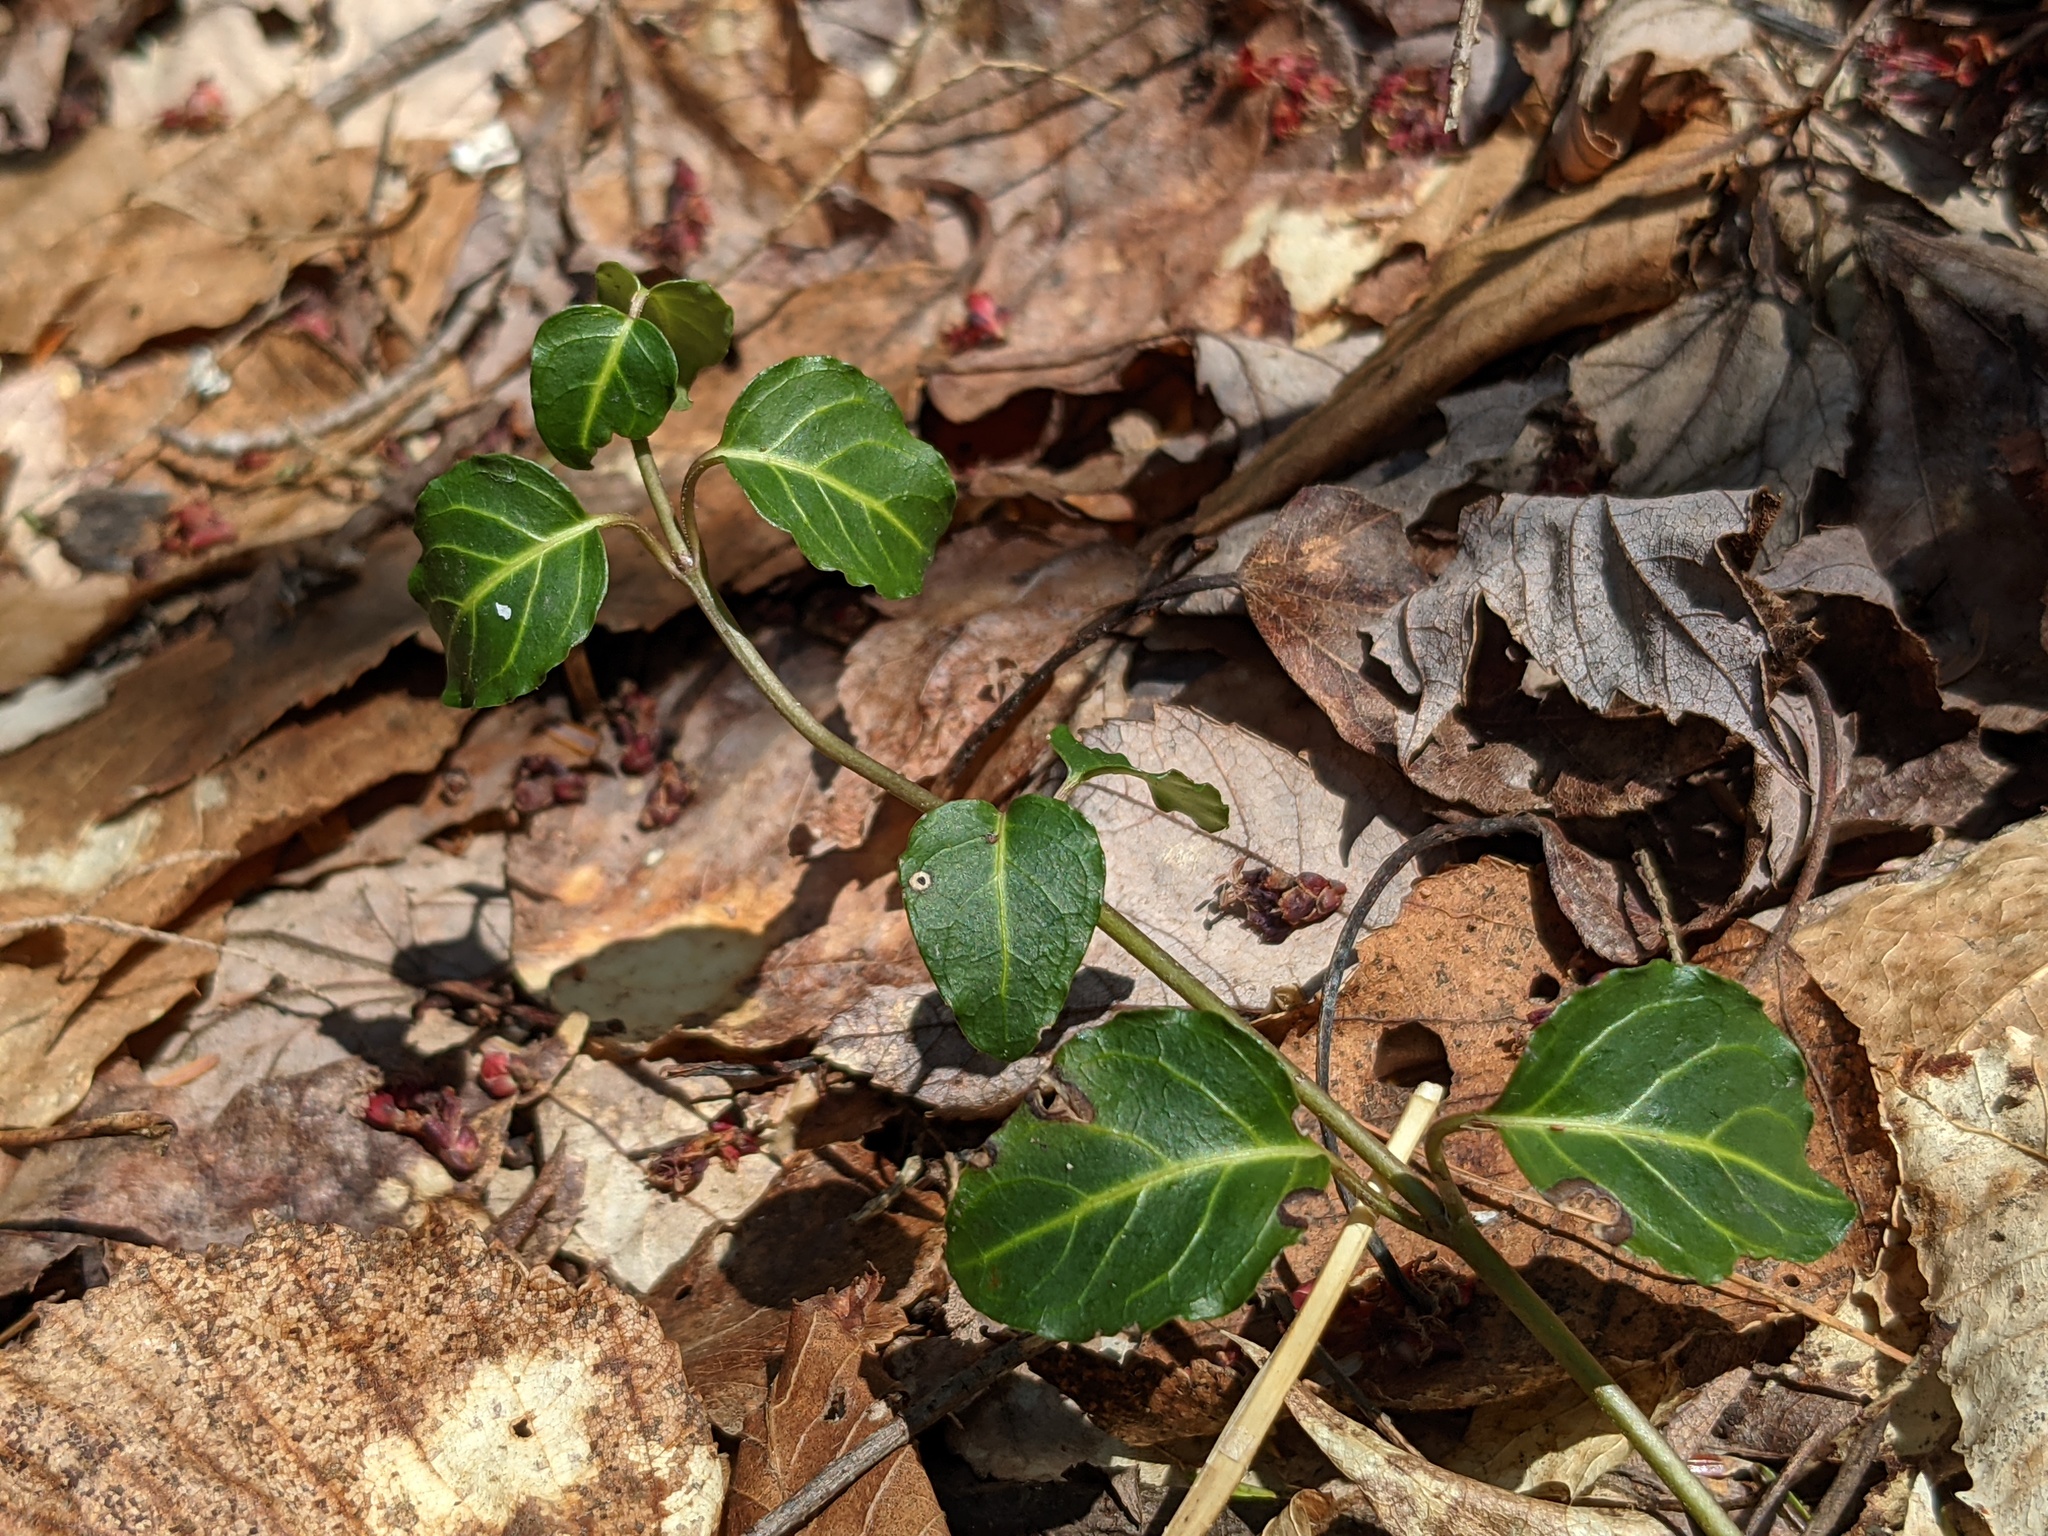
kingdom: Plantae
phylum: Tracheophyta
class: Magnoliopsida
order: Gentianales
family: Rubiaceae
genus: Mitchella
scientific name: Mitchella repens
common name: Partridge-berry
